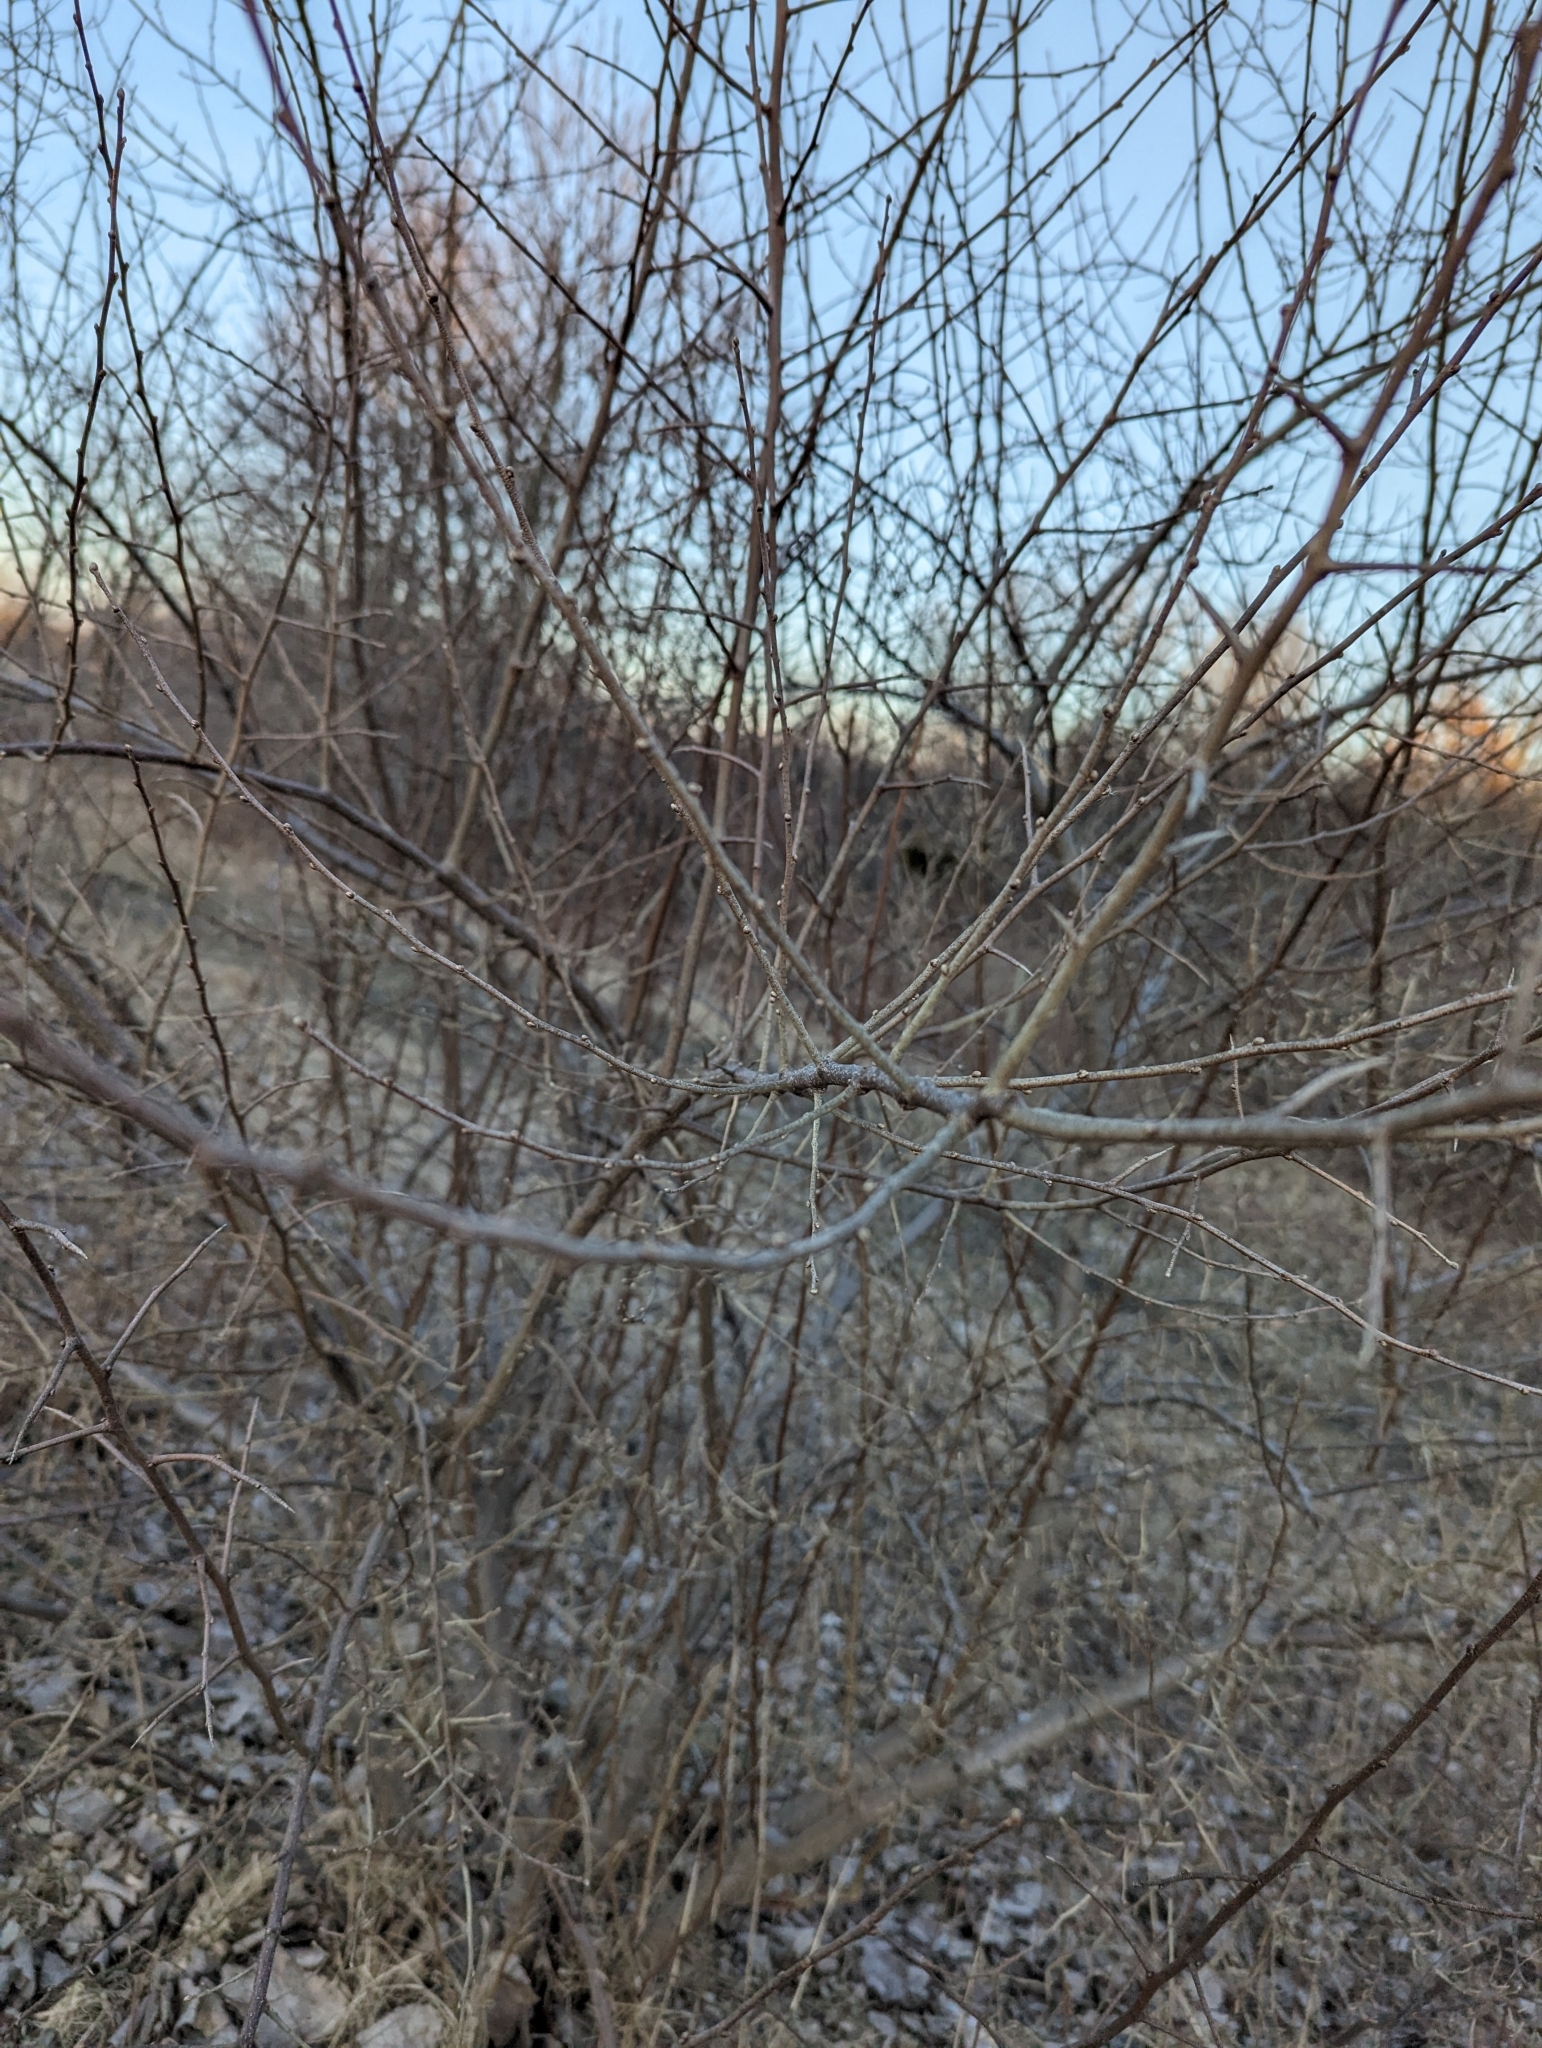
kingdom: Plantae
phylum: Tracheophyta
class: Magnoliopsida
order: Rosales
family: Elaeagnaceae
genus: Elaeagnus
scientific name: Elaeagnus umbellata
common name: Autumn olive
